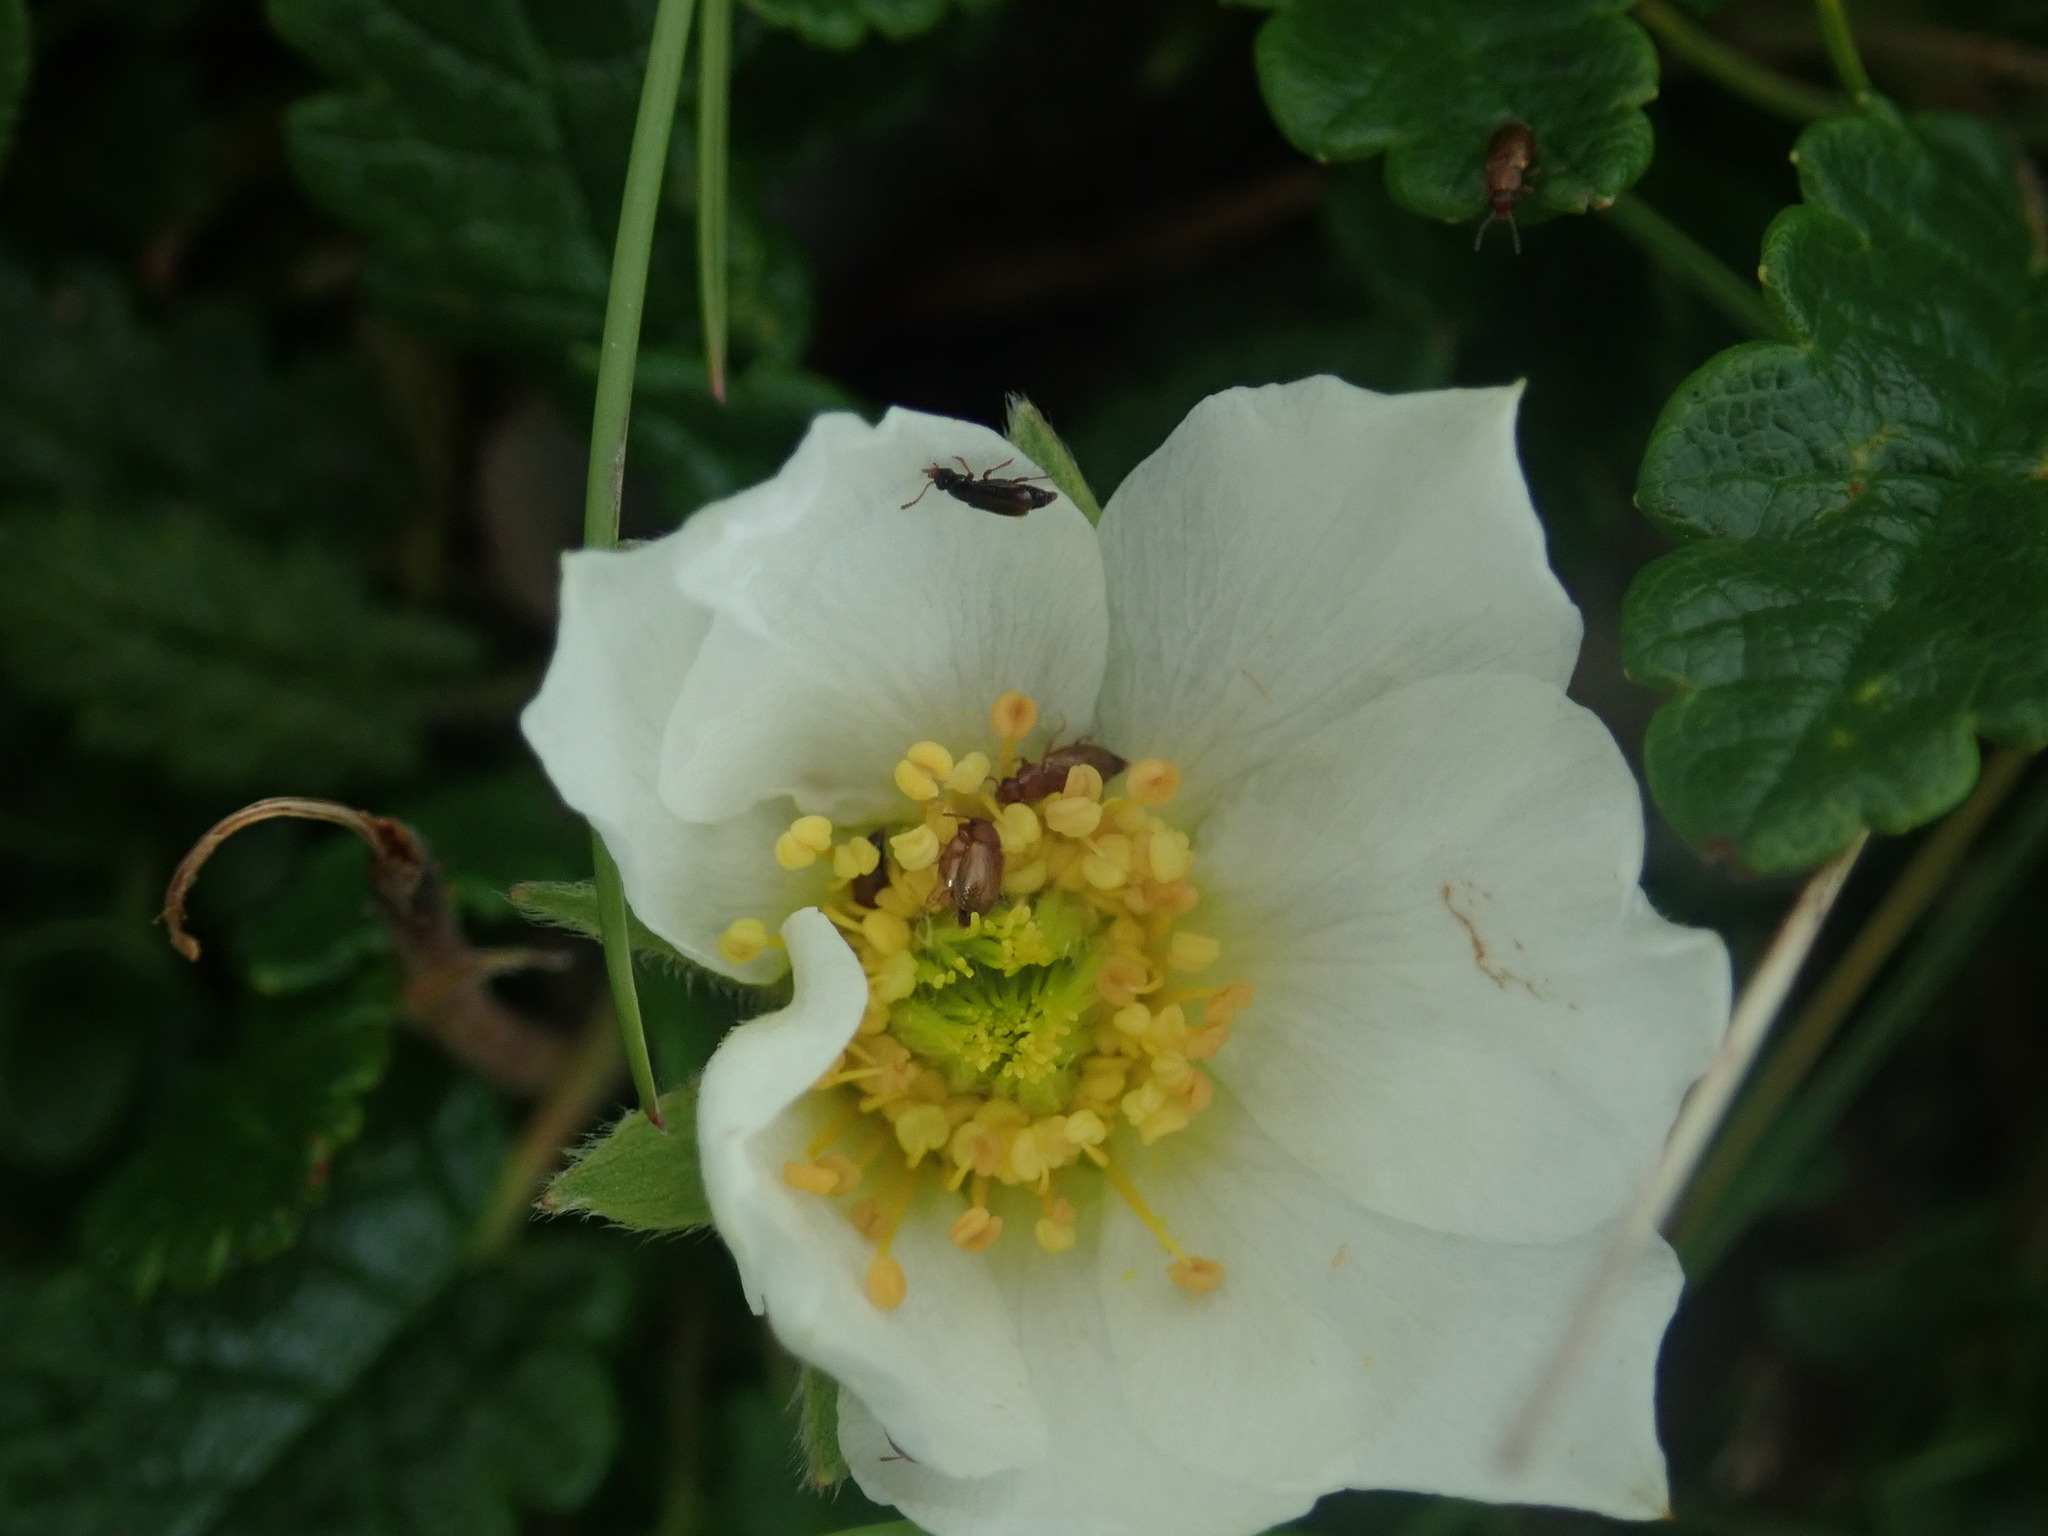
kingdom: Plantae
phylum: Tracheophyta
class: Magnoliopsida
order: Rosales
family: Rosaceae
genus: Dryas
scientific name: Dryas octopetala
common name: Eight-petal mountain-avens
